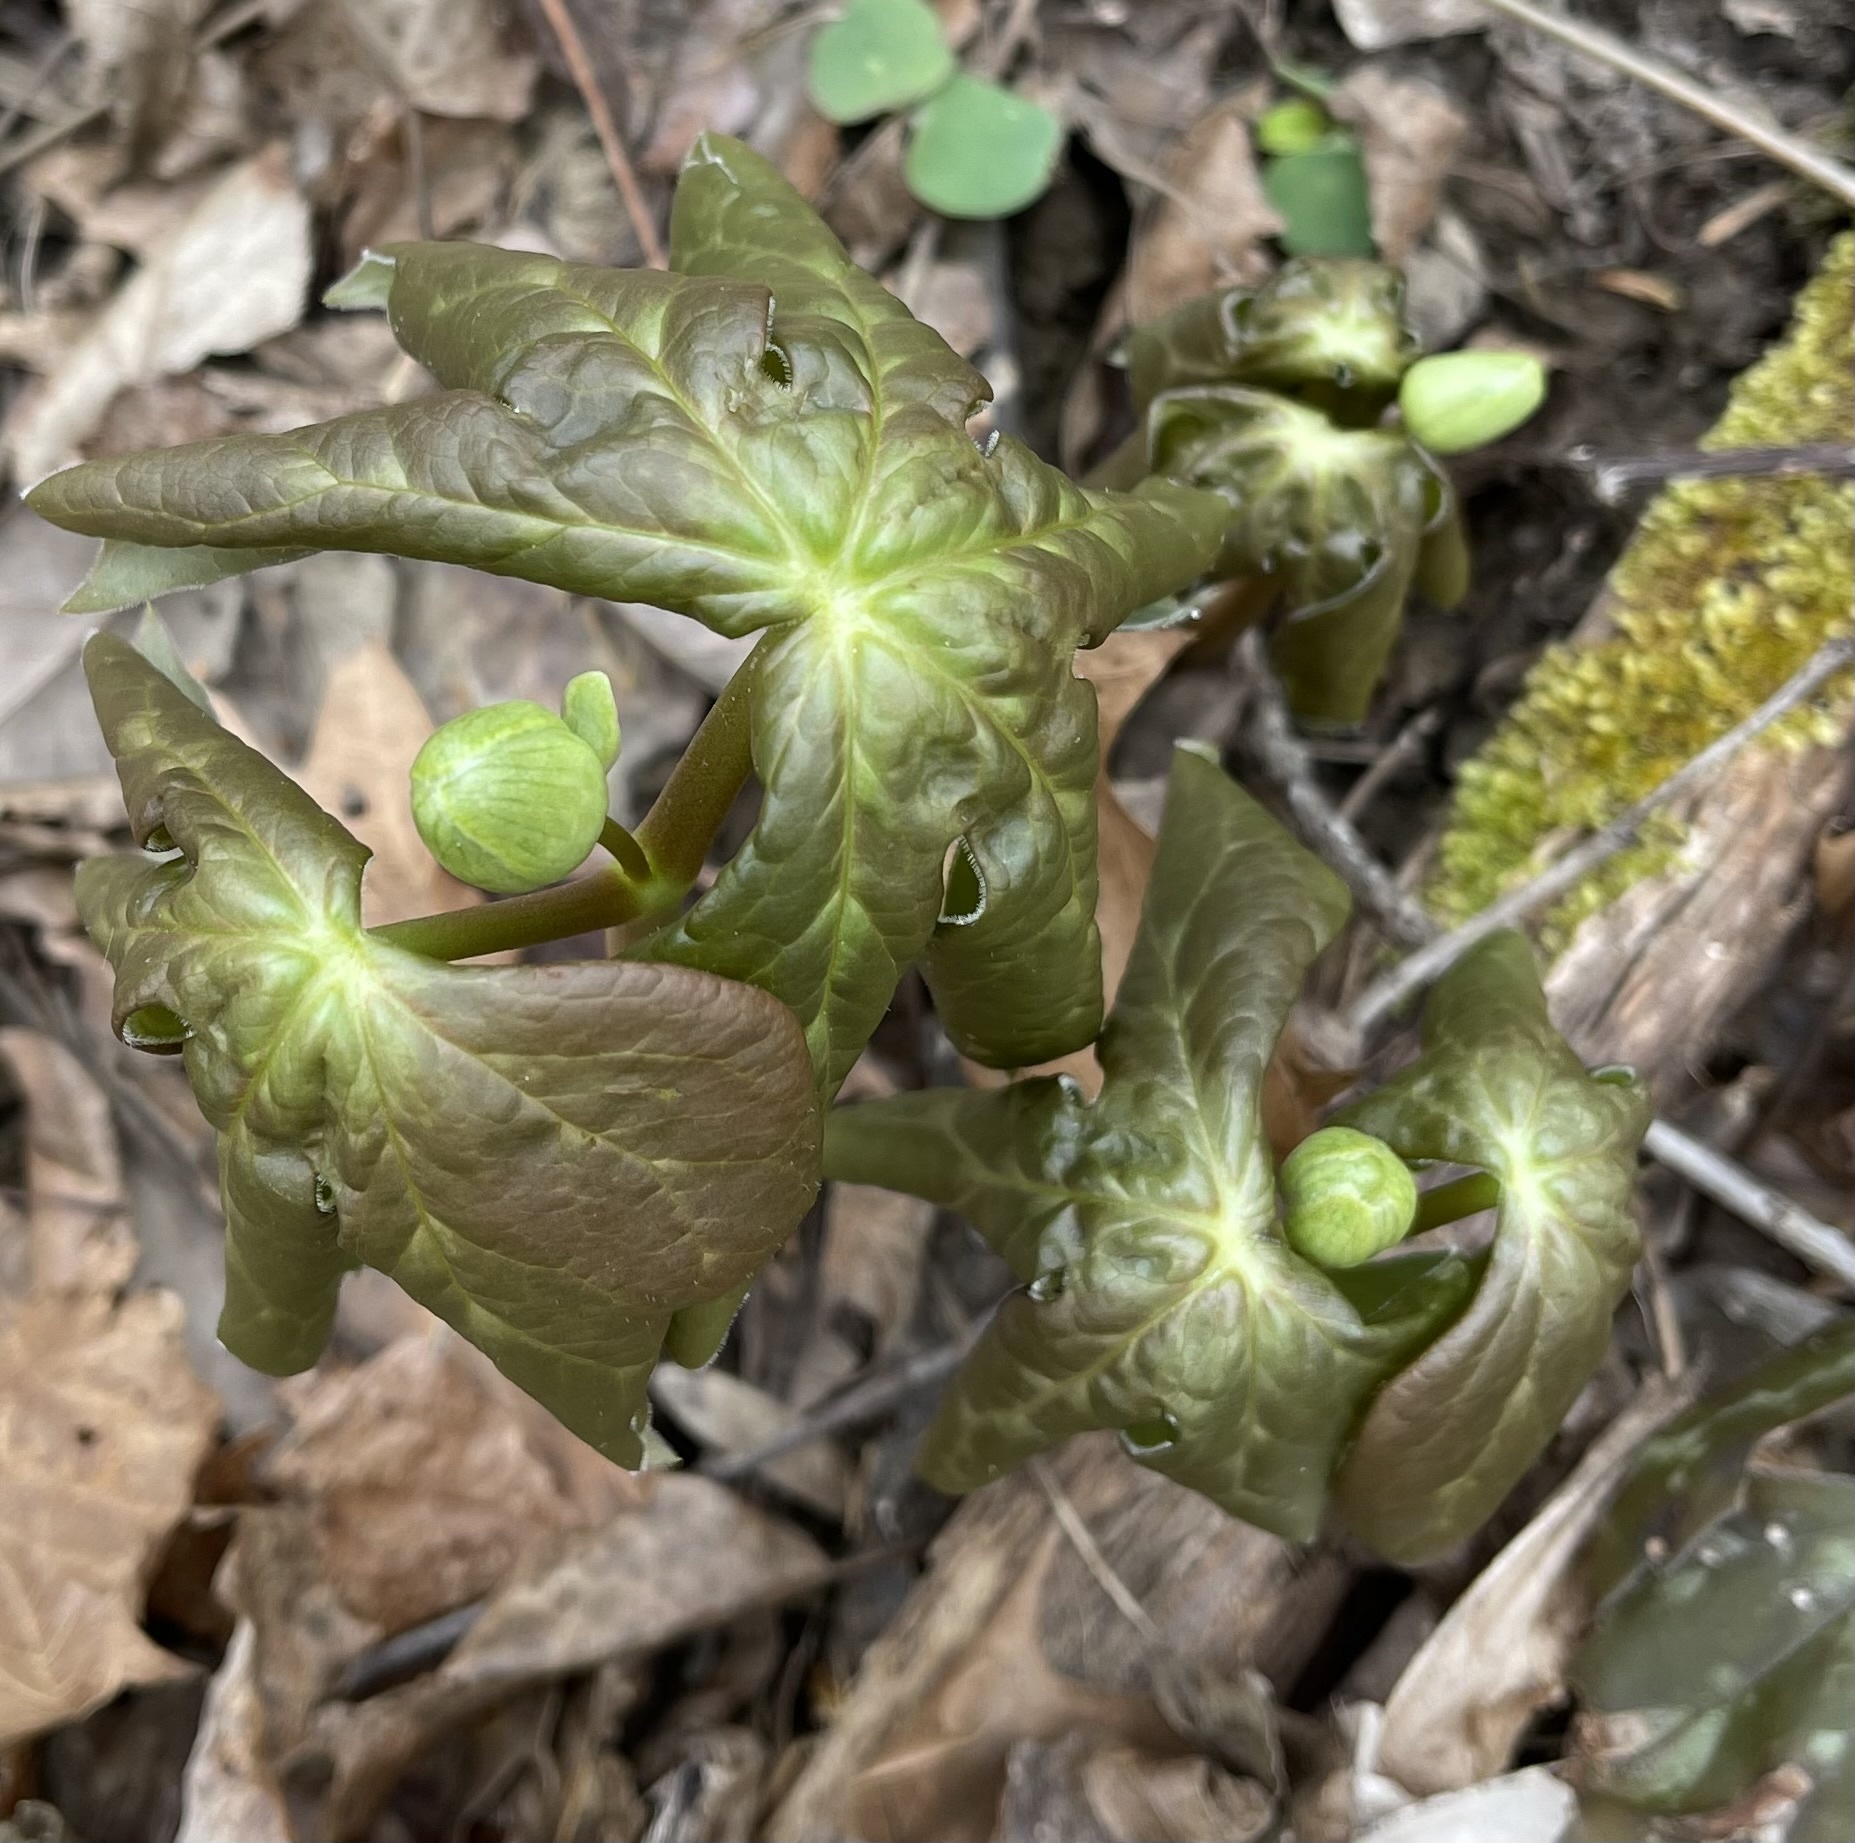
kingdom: Plantae
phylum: Tracheophyta
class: Magnoliopsida
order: Ranunculales
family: Berberidaceae
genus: Podophyllum
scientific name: Podophyllum peltatum
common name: Wild mandrake
